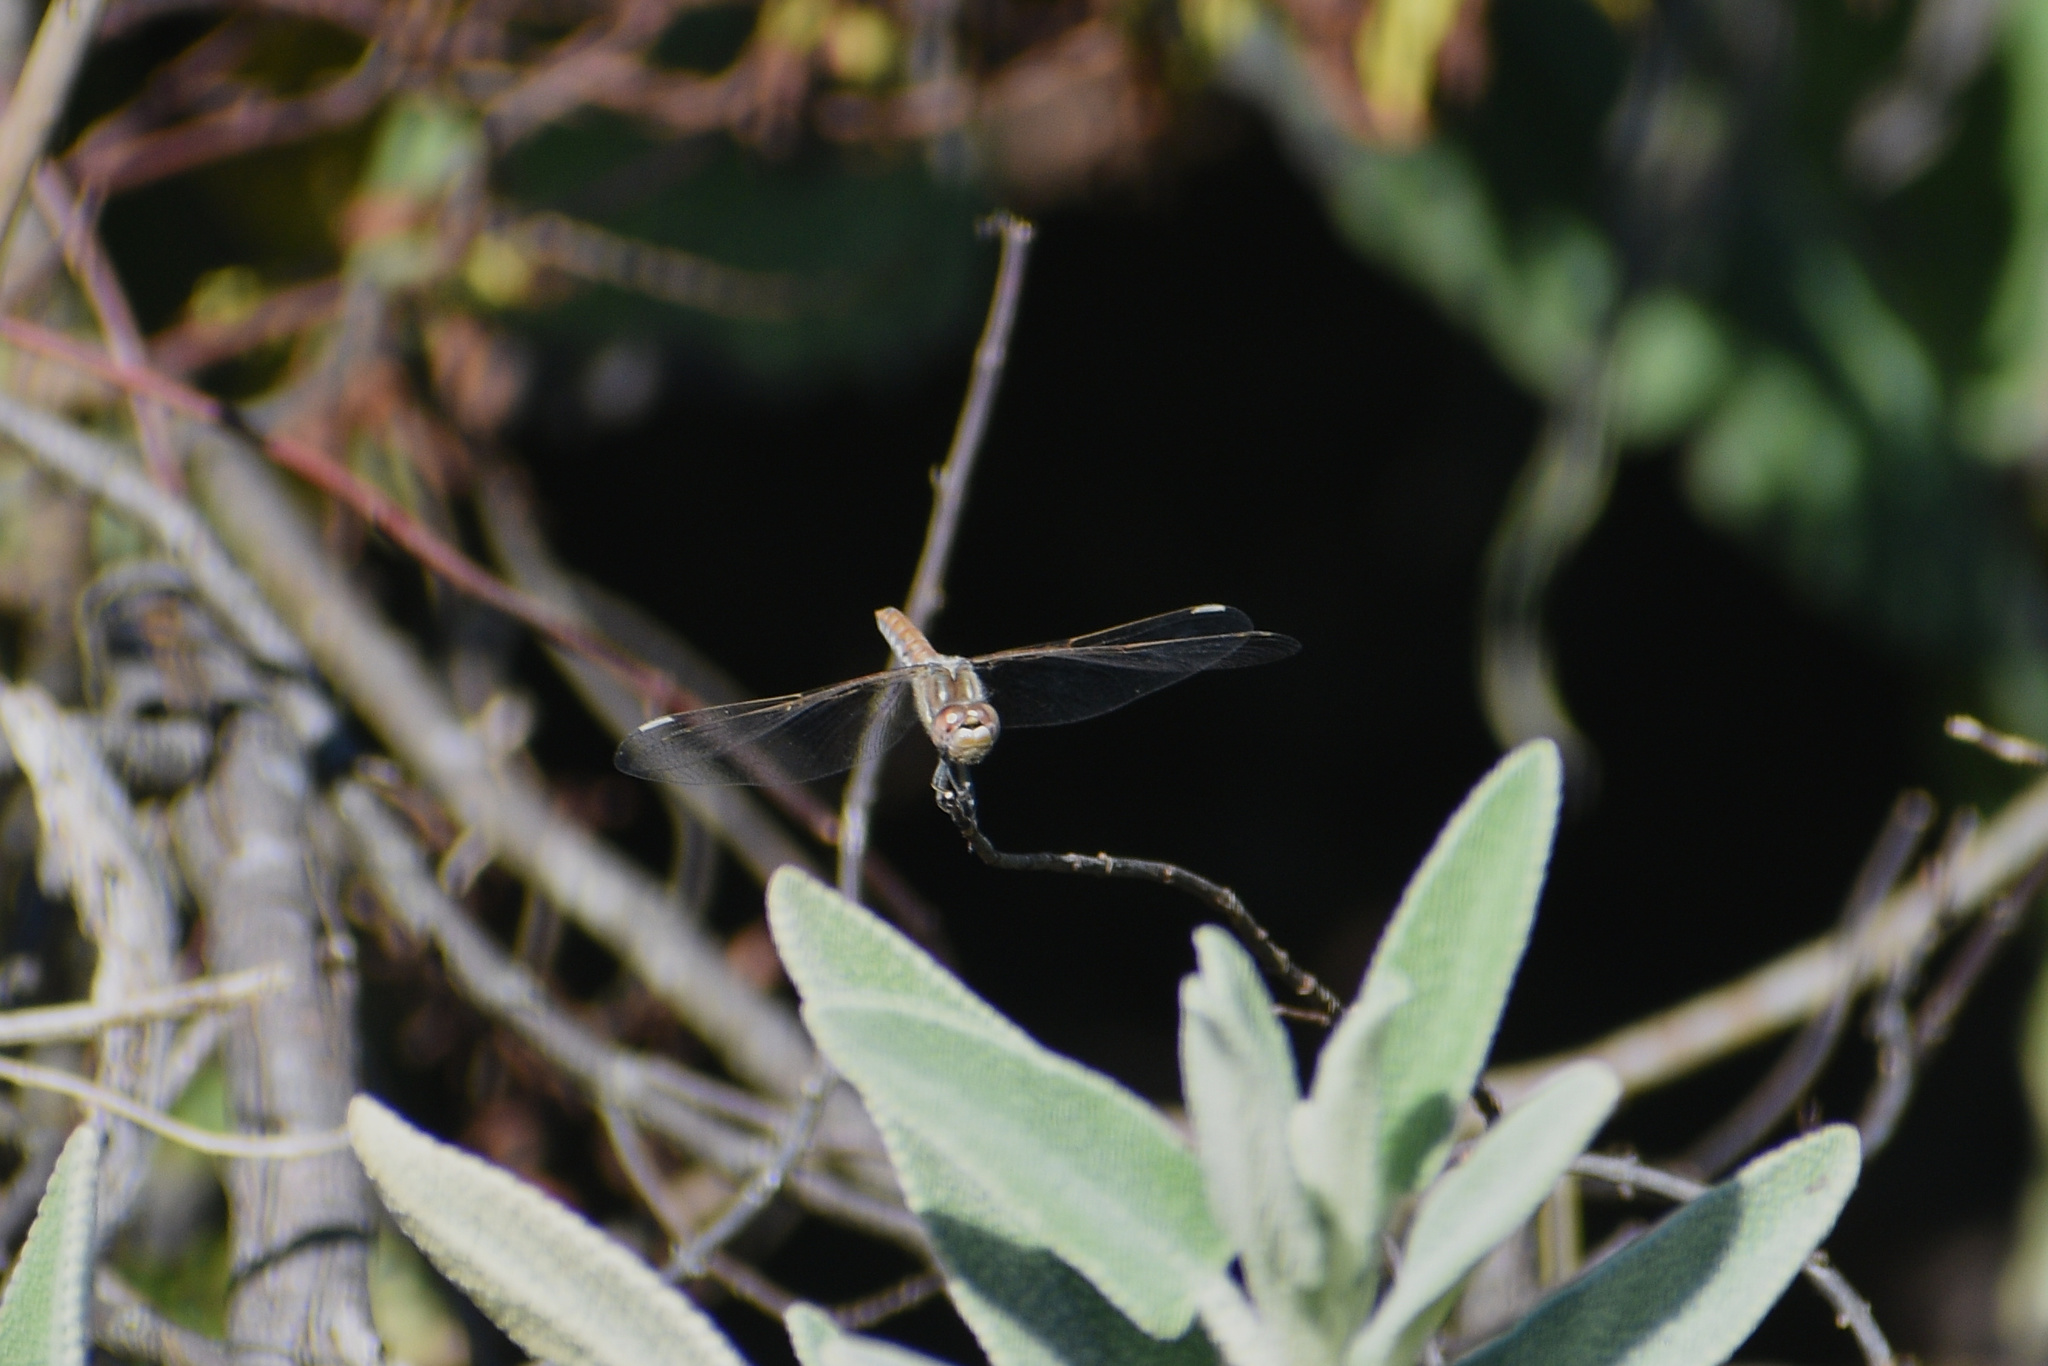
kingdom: Animalia
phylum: Arthropoda
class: Insecta
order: Odonata
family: Libellulidae
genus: Sympetrum
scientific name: Sympetrum corruptum
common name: Variegated meadowhawk
